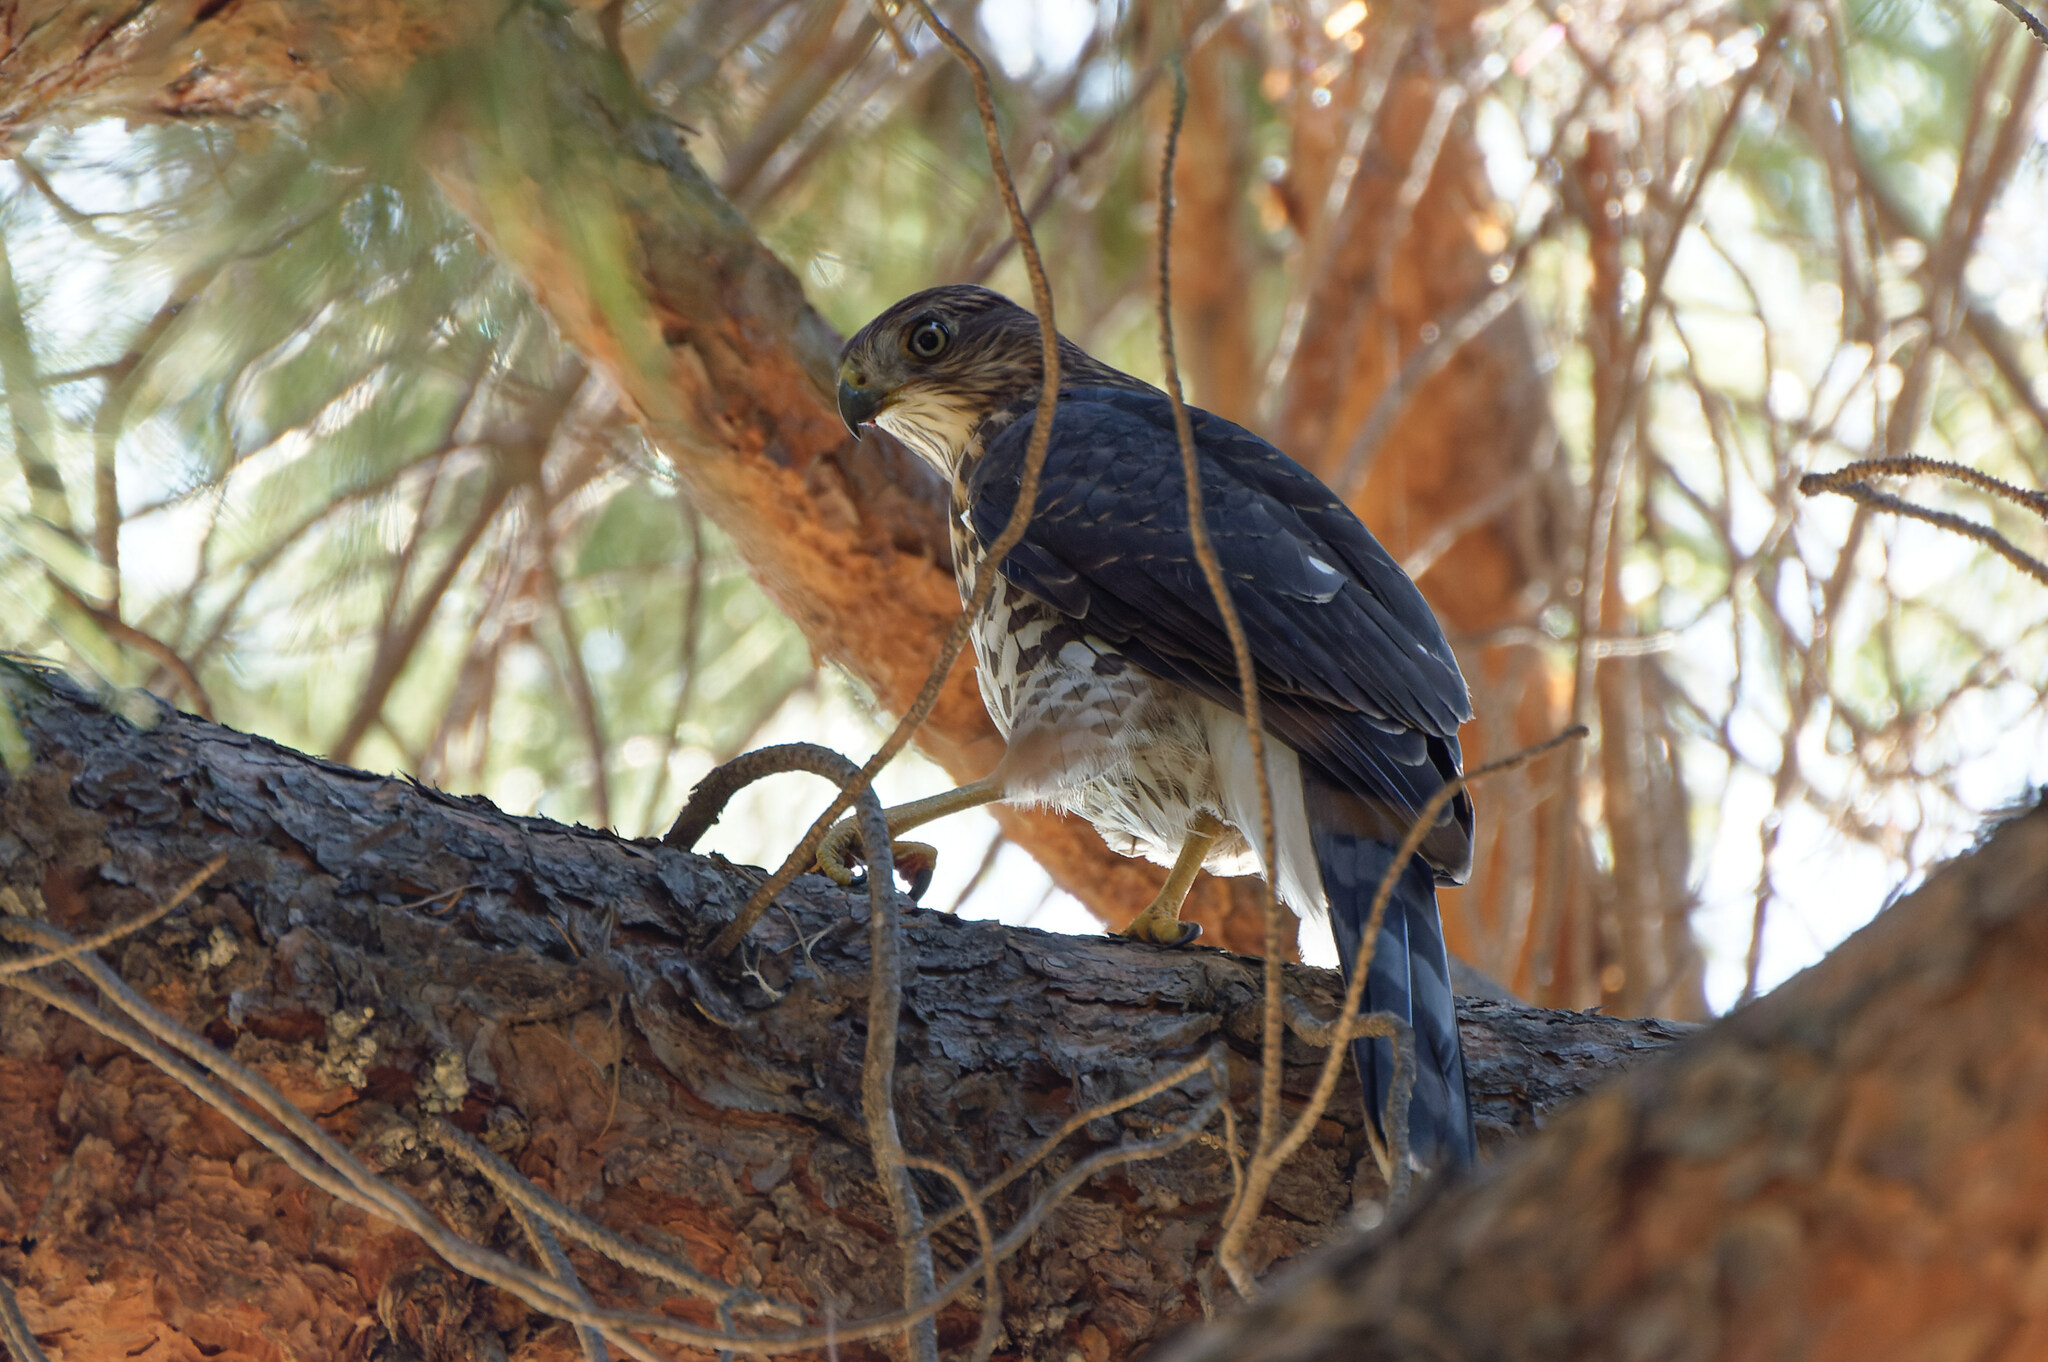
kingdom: Animalia
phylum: Chordata
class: Aves
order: Accipitriformes
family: Accipitridae
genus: Accipiter
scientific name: Accipiter cooperii
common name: Cooper's hawk
